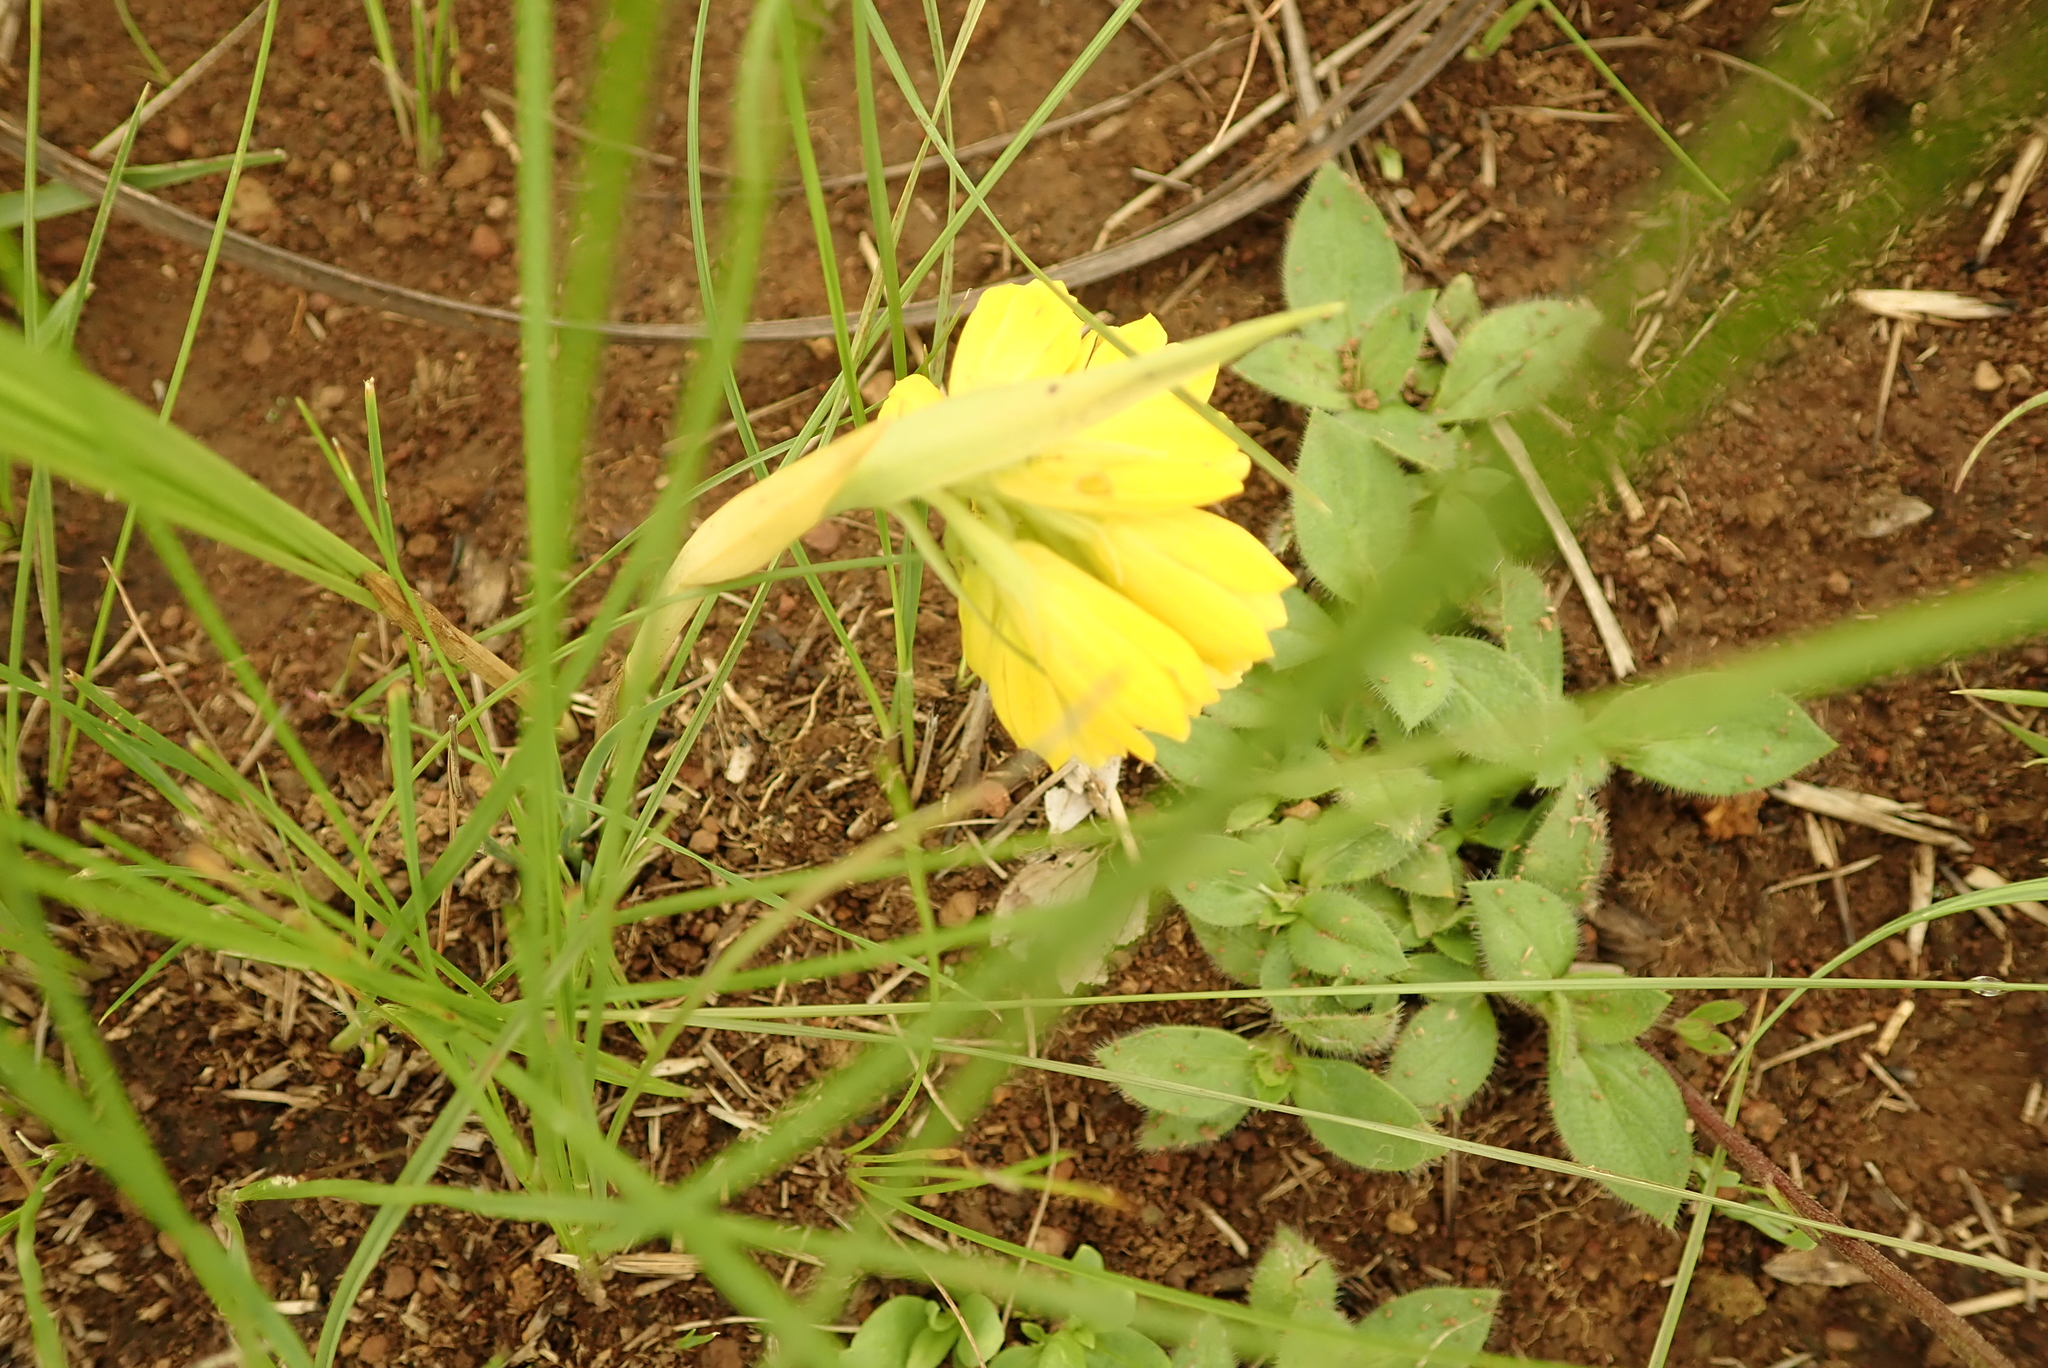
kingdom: Plantae
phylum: Tracheophyta
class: Liliopsida
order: Asparagales
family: Orchidaceae
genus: Eulophia
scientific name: Eulophia leontoglossa
